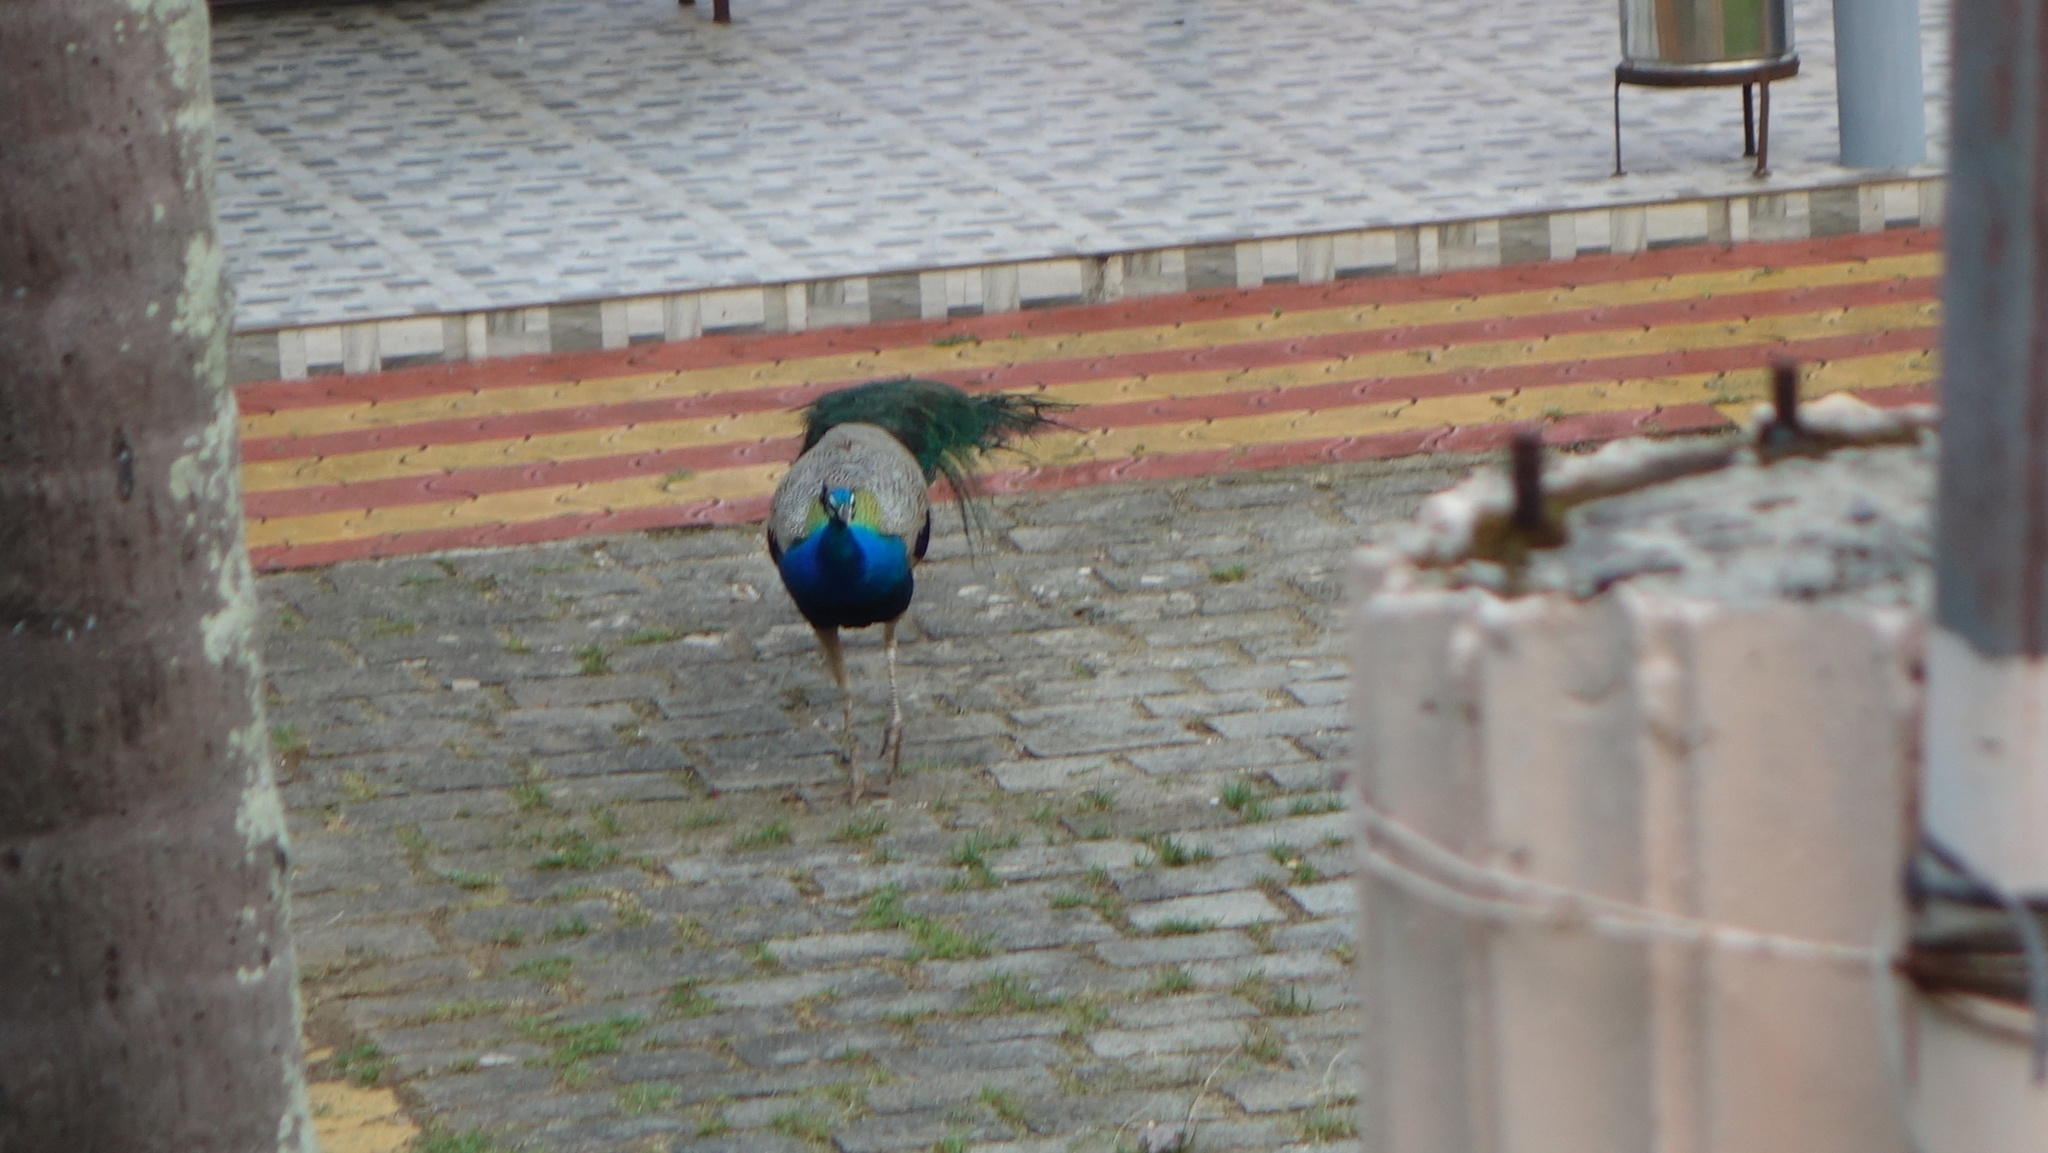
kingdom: Animalia
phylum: Chordata
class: Aves
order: Galliformes
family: Phasianidae
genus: Pavo
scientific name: Pavo cristatus
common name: Indian peafowl
